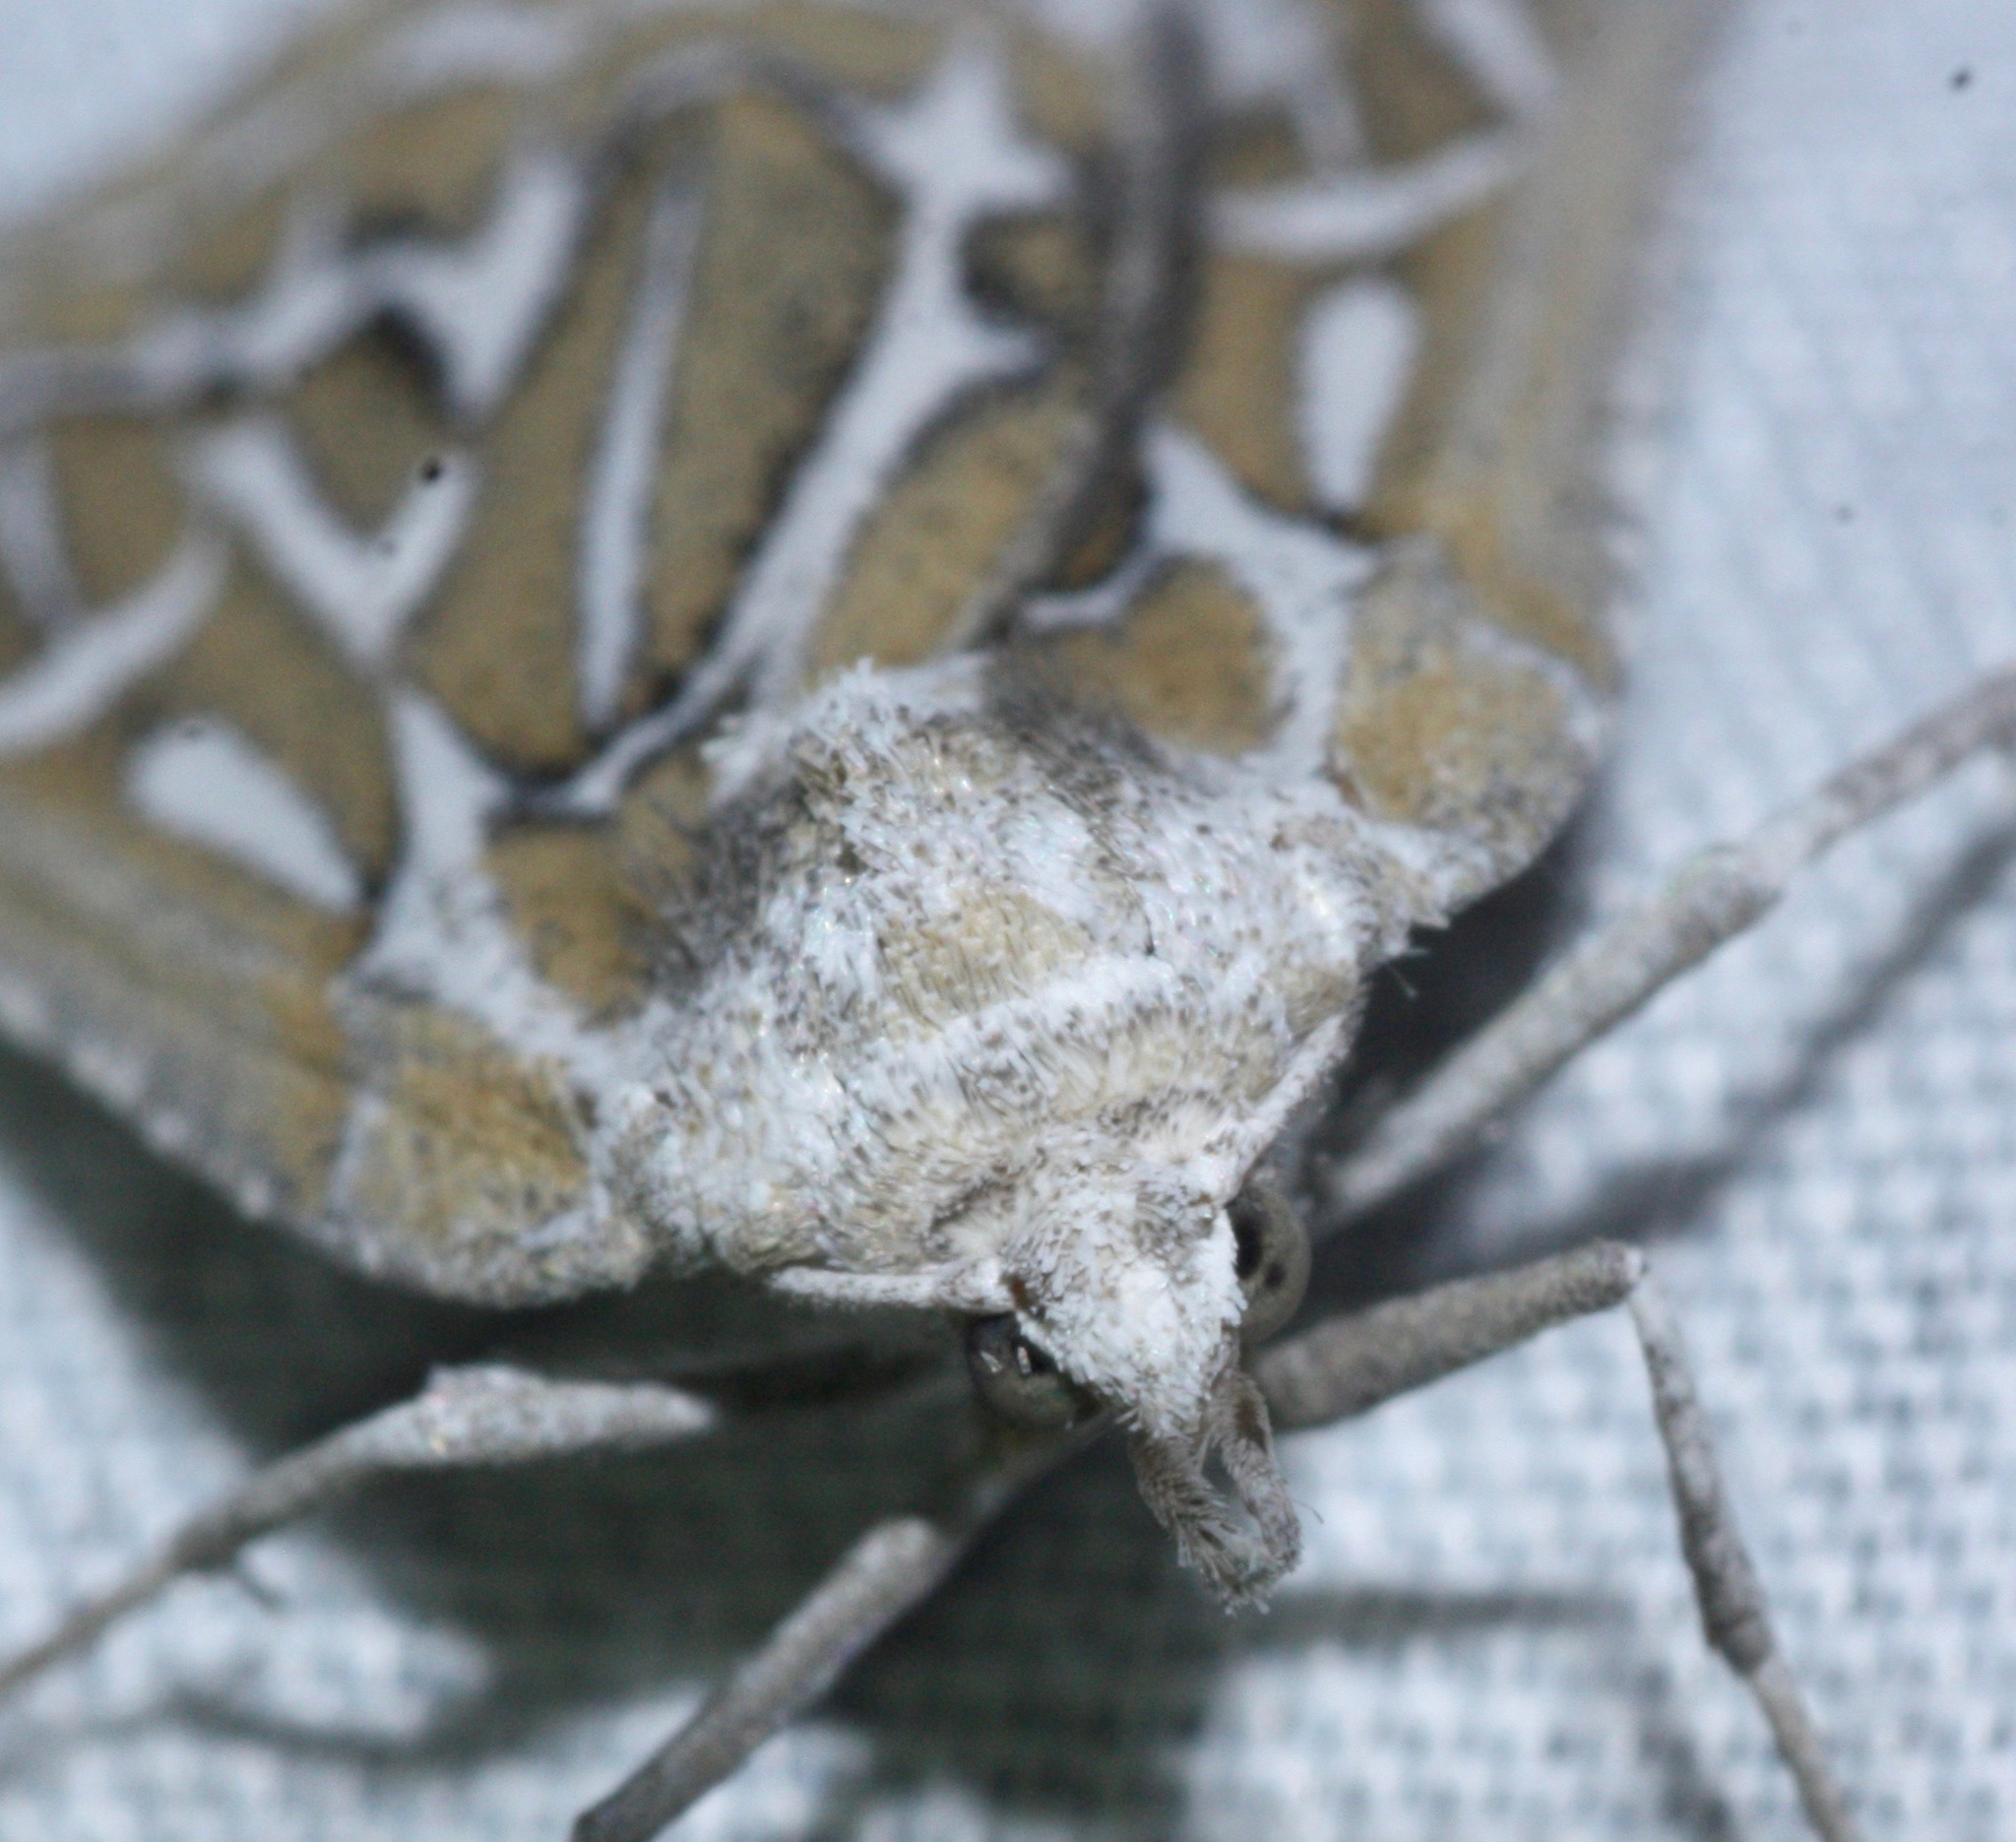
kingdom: Animalia
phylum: Arthropoda
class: Insecta
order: Lepidoptera
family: Geometridae
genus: Plataea
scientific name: Plataea trilinearia
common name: Sagebrush girdle moth
